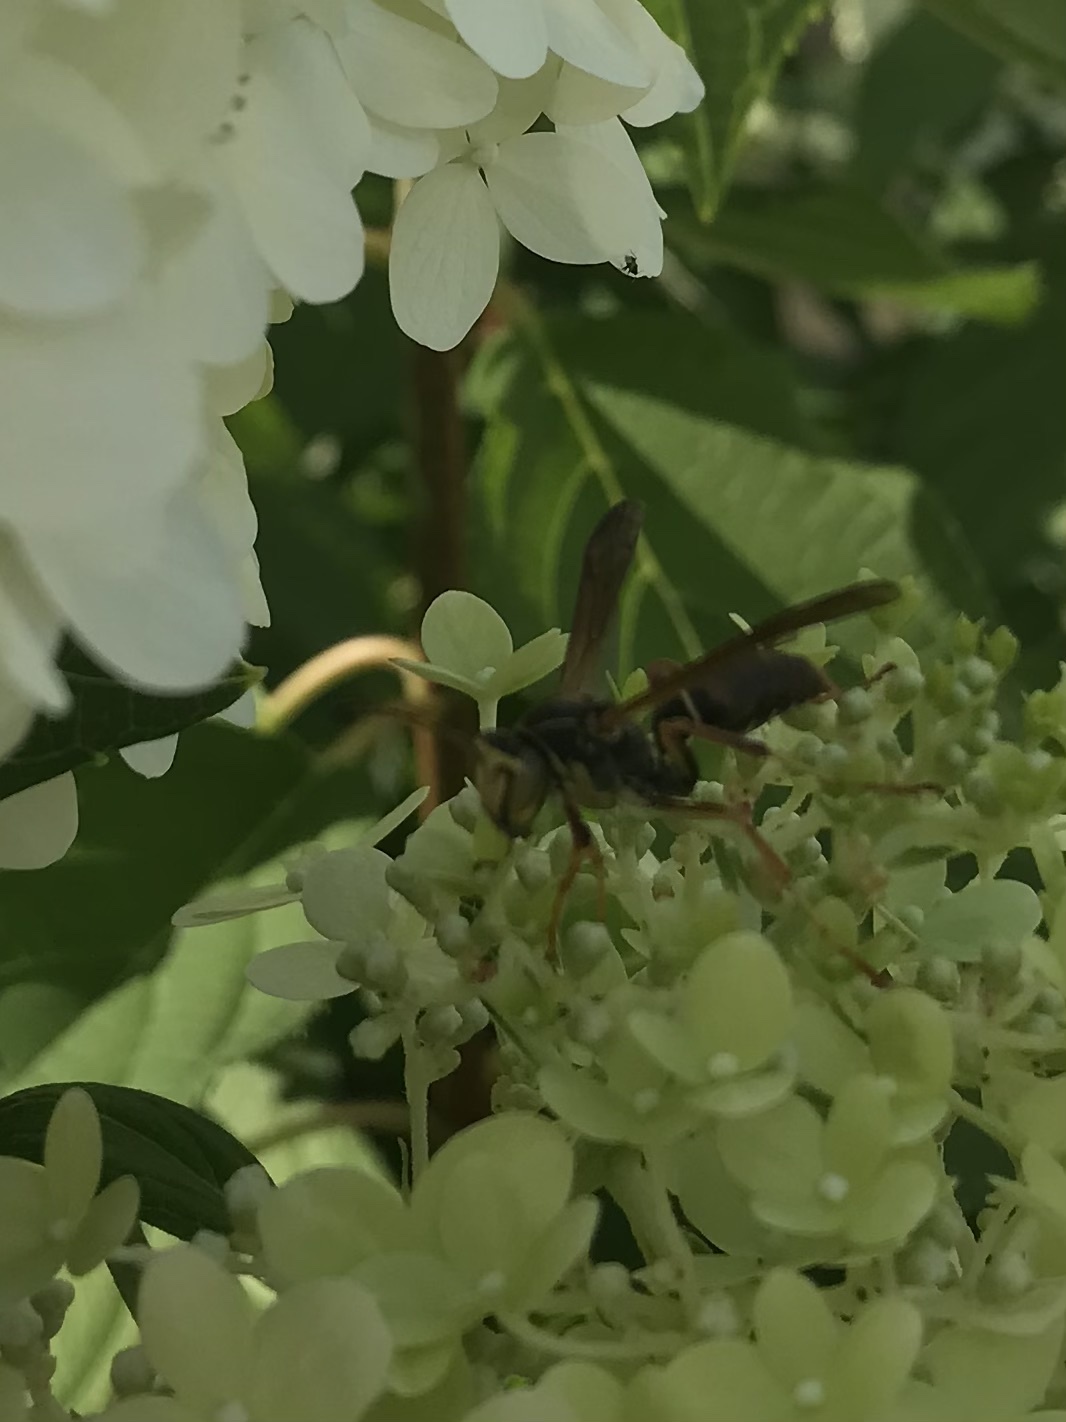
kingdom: Animalia
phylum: Arthropoda
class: Insecta
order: Hymenoptera
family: Eumenidae
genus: Polistes
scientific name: Polistes fuscatus
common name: Dark paper wasp
